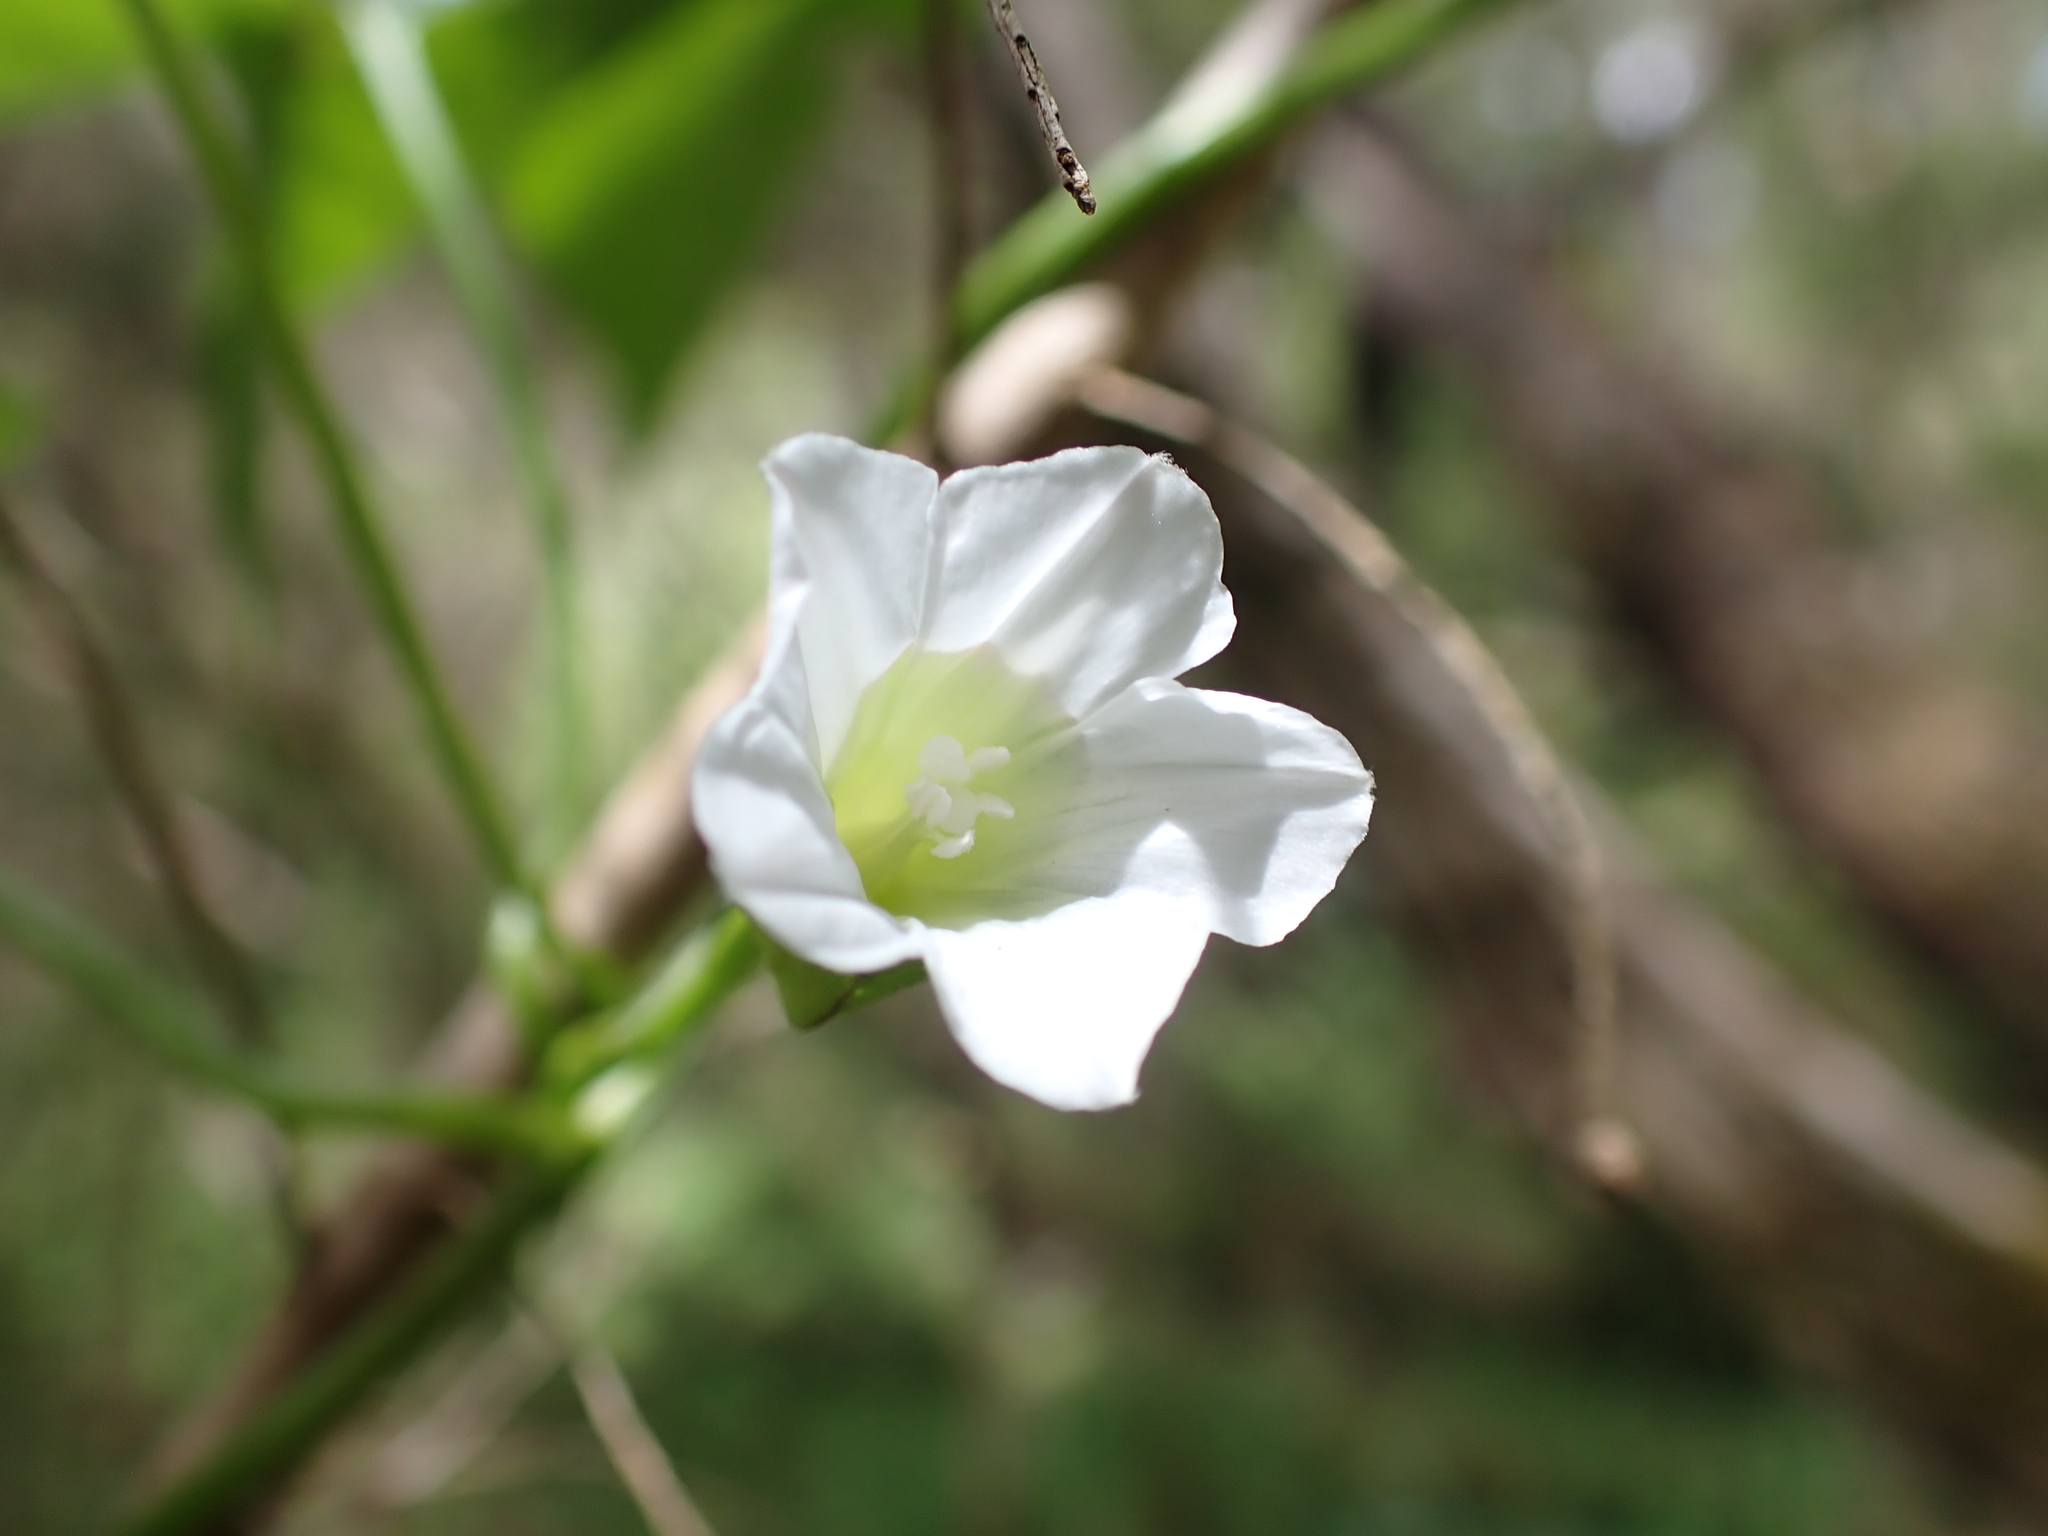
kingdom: Plantae
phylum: Tracheophyta
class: Magnoliopsida
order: Solanales
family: Convolvulaceae
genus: Calystegia
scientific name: Calystegia marginata
